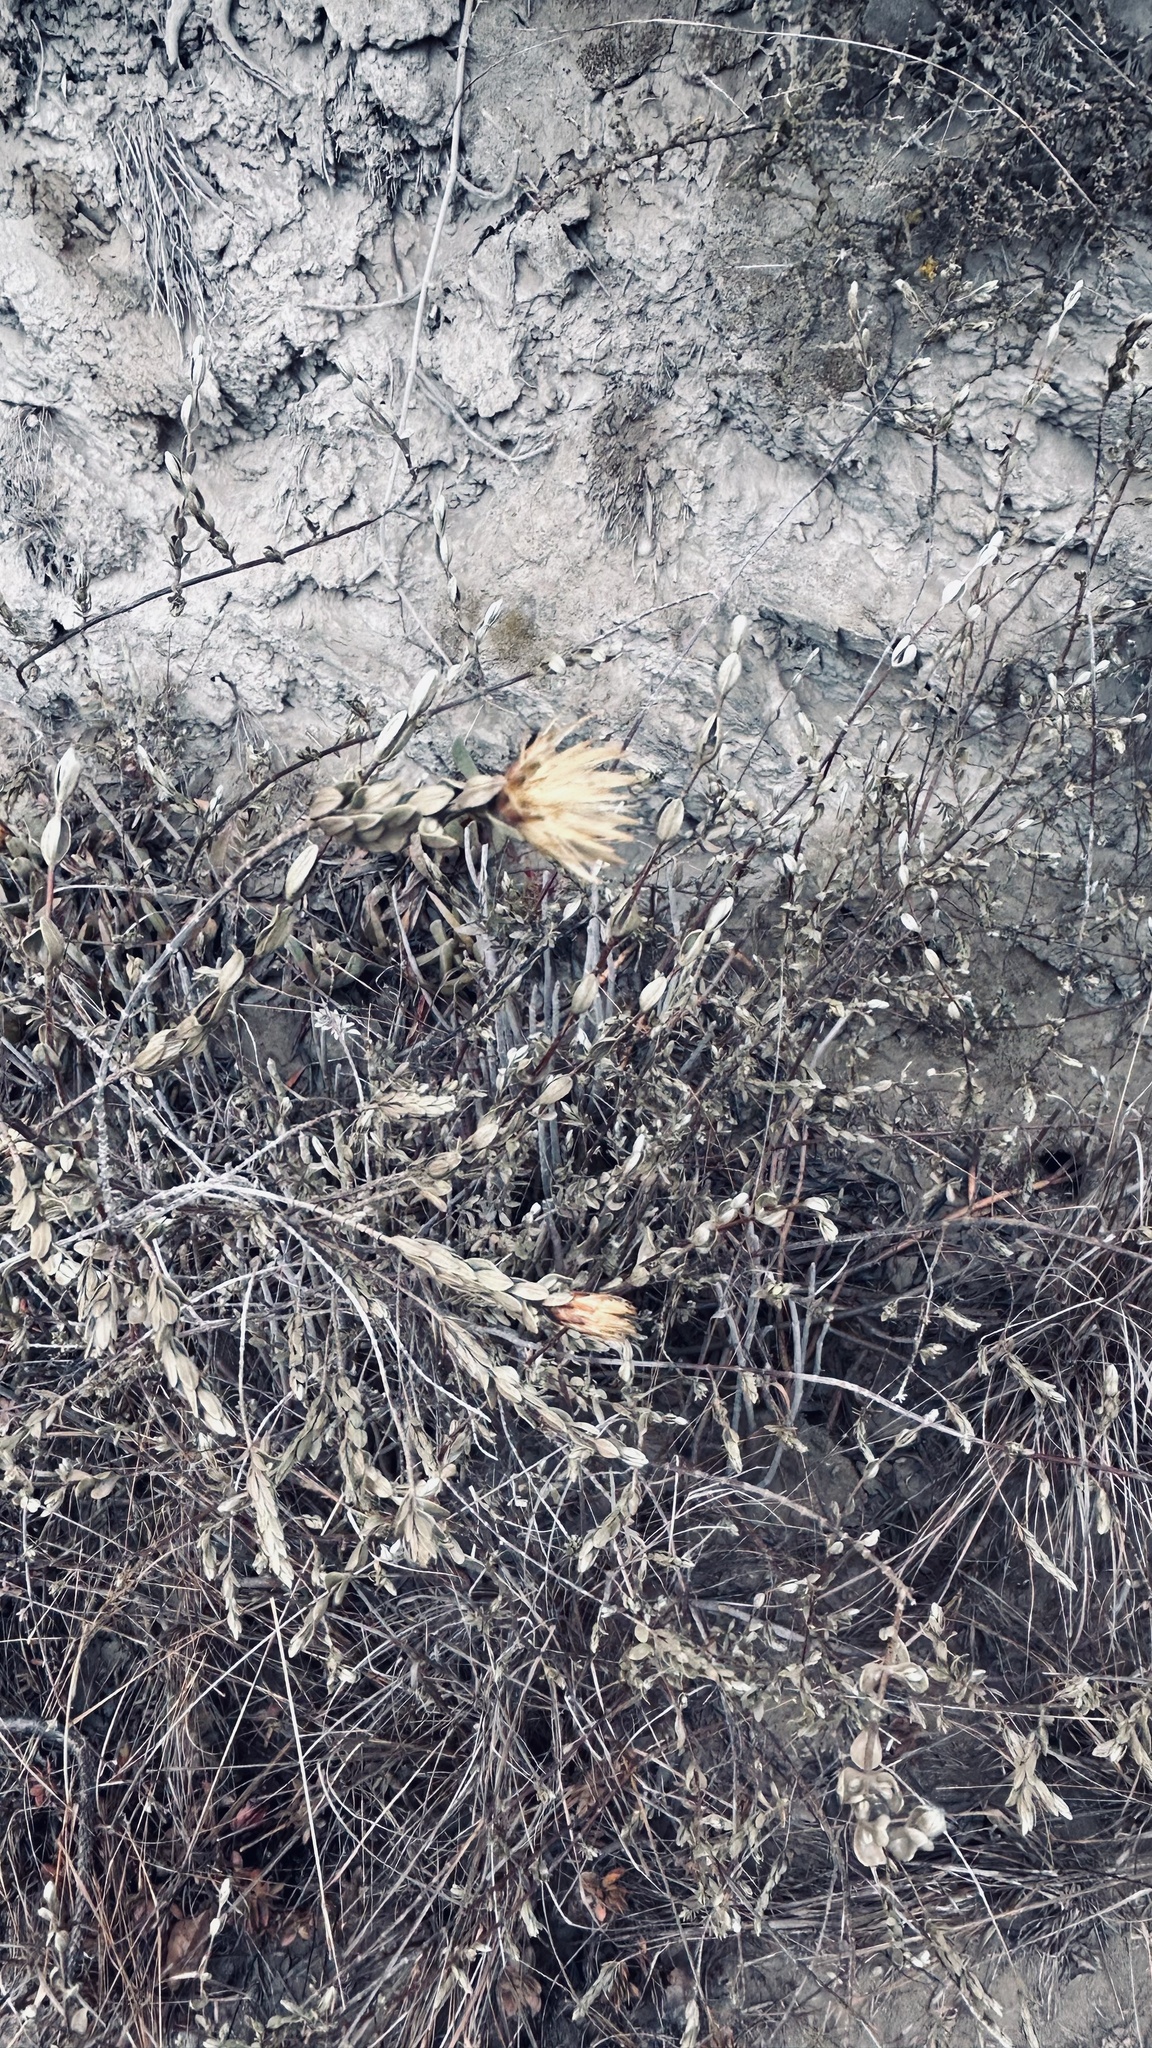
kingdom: Plantae
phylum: Tracheophyta
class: Magnoliopsida
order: Asterales
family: Asteraceae
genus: Pteronia
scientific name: Pteronia oppositifolia
